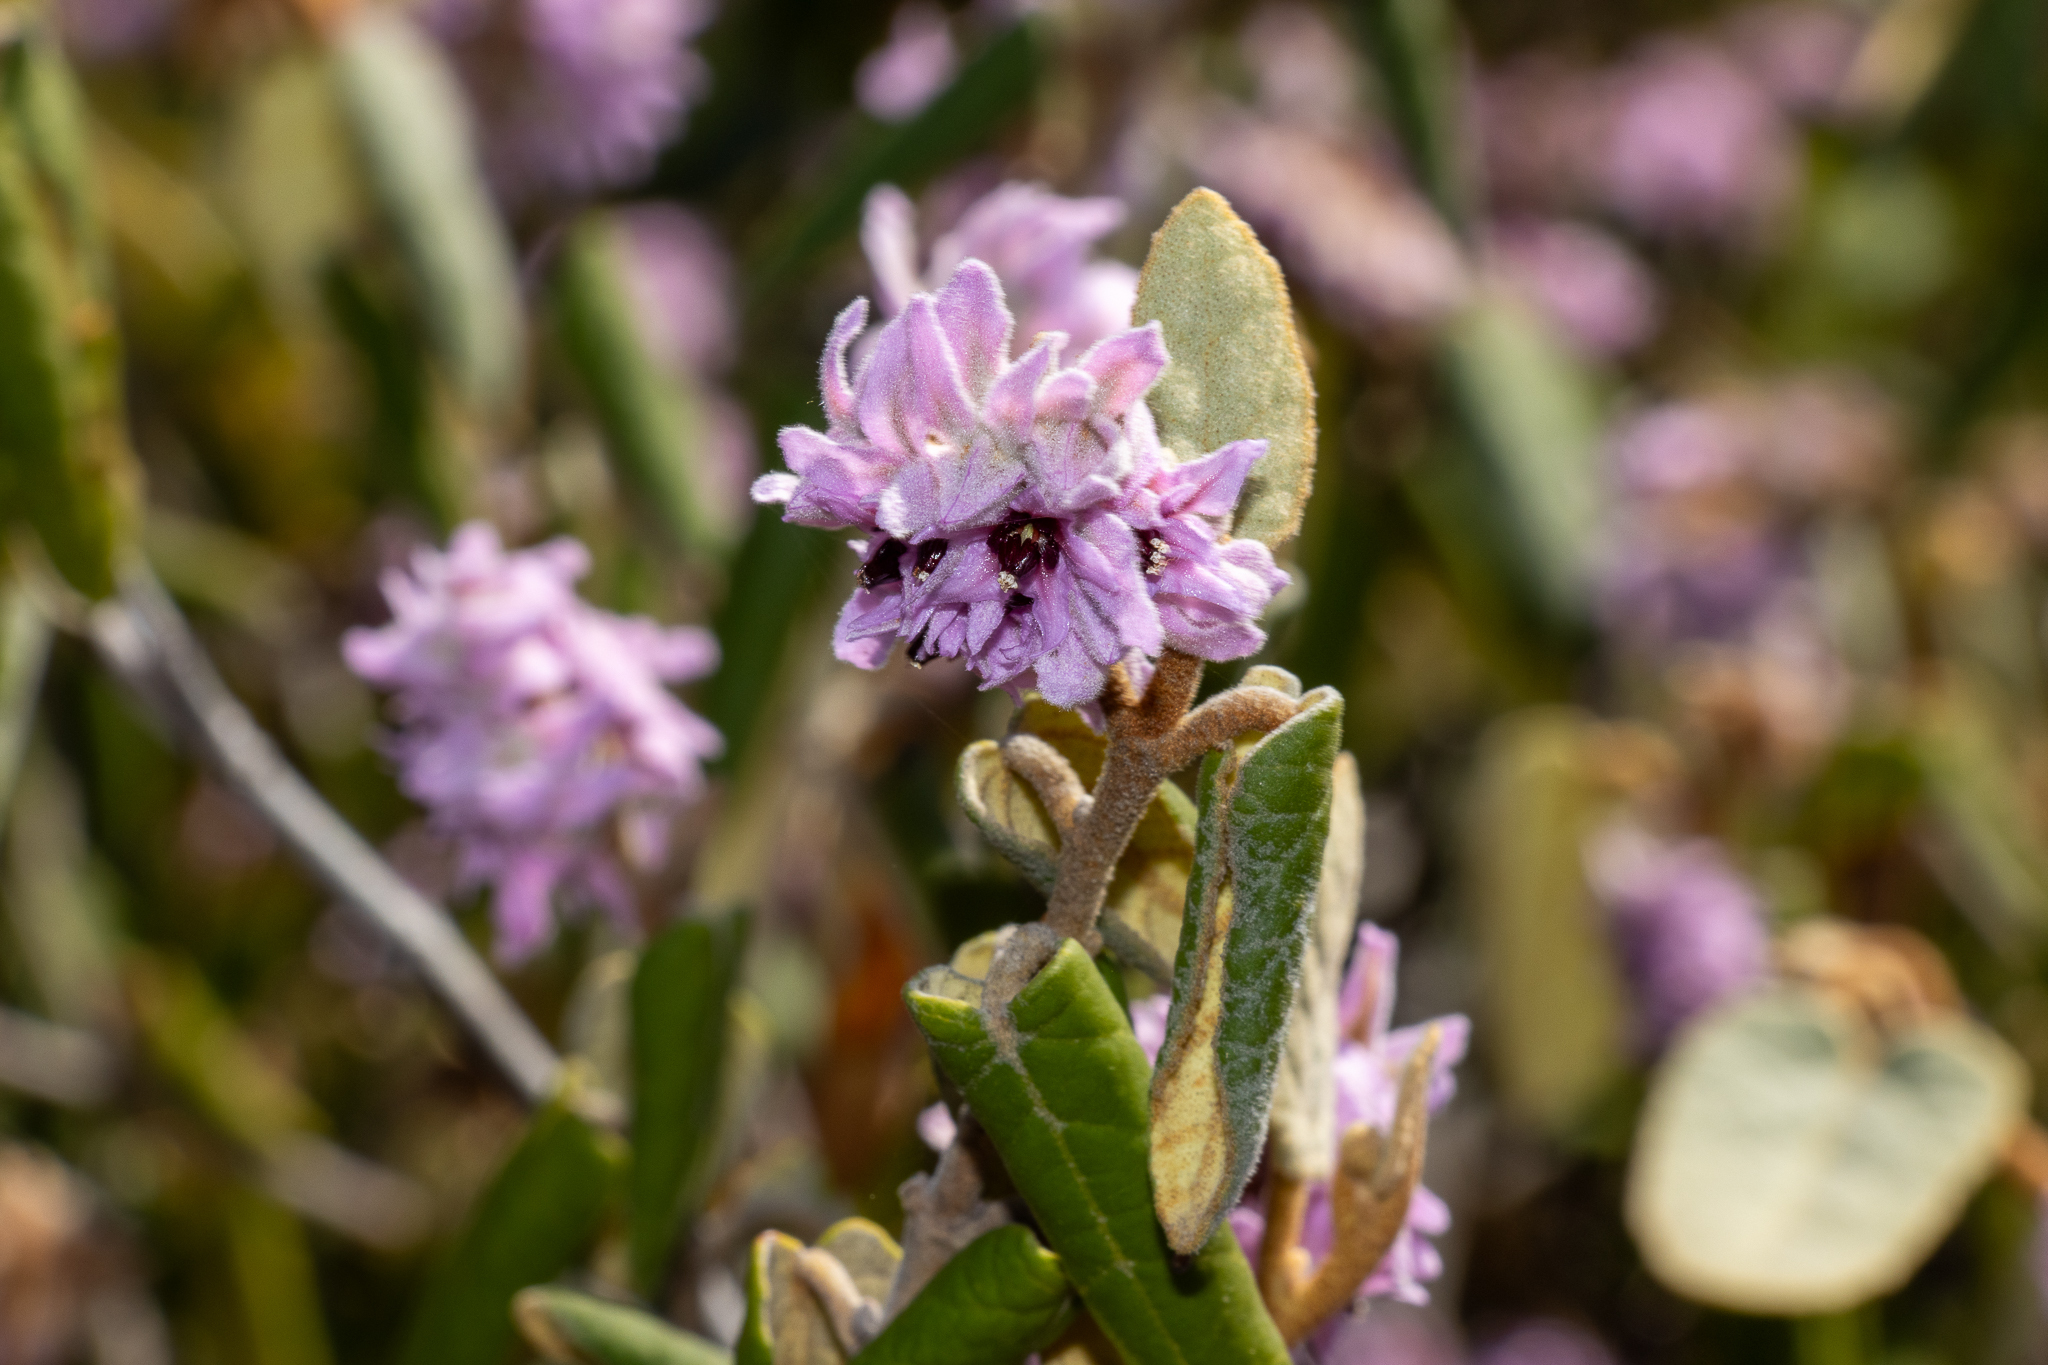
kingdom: Plantae
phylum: Tracheophyta
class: Magnoliopsida
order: Malvales
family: Malvaceae
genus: Lasiopetalum
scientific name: Lasiopetalum discolor
